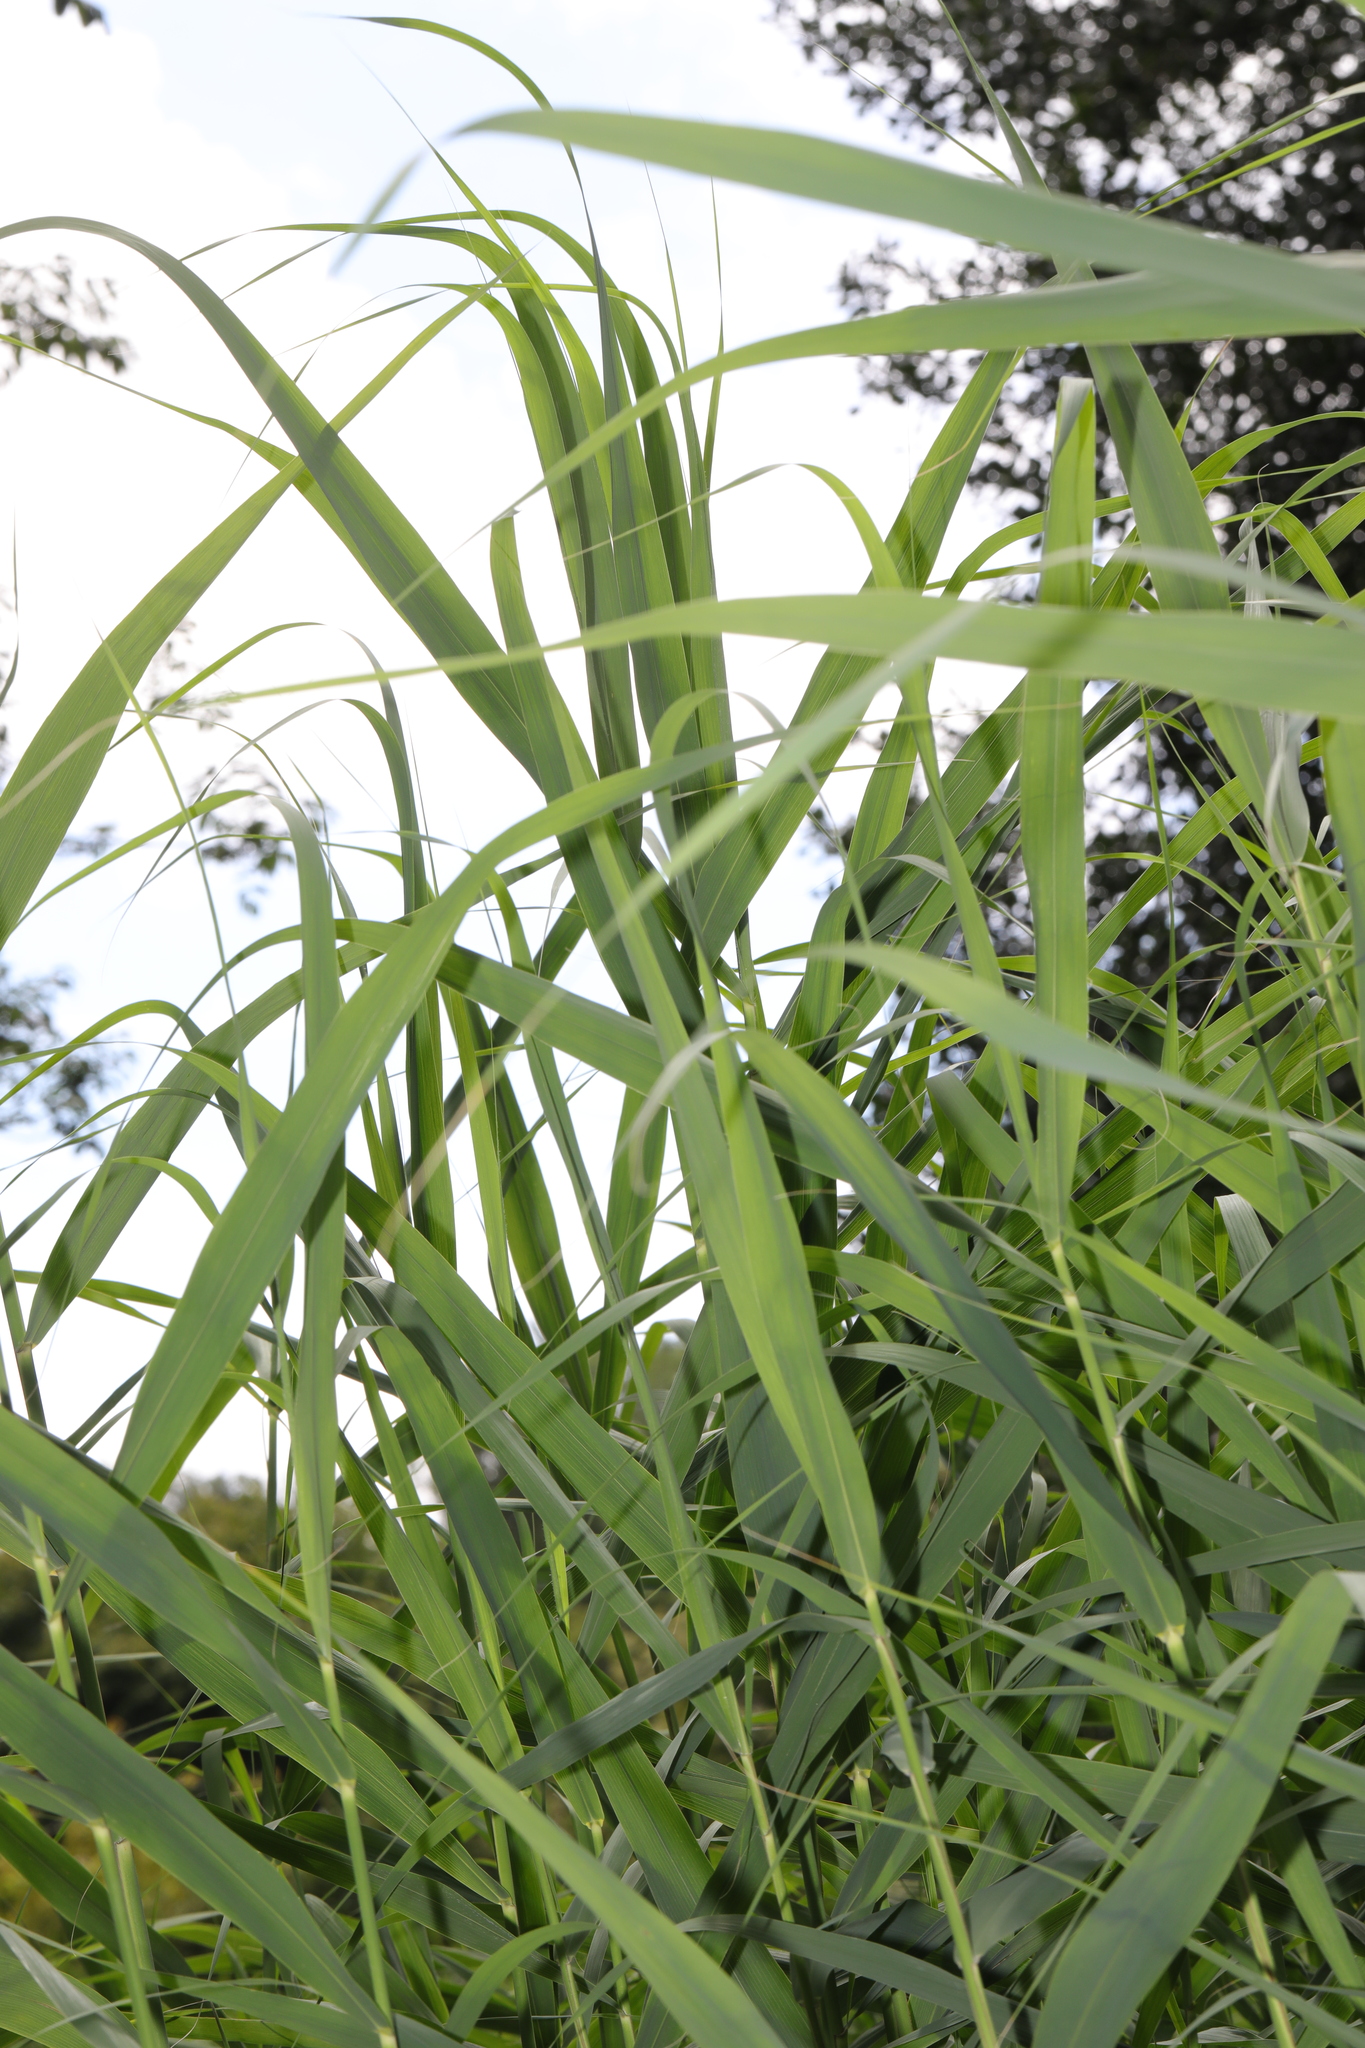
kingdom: Plantae
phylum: Tracheophyta
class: Liliopsida
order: Poales
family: Poaceae
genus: Phragmites
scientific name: Phragmites australis
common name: Common reed
